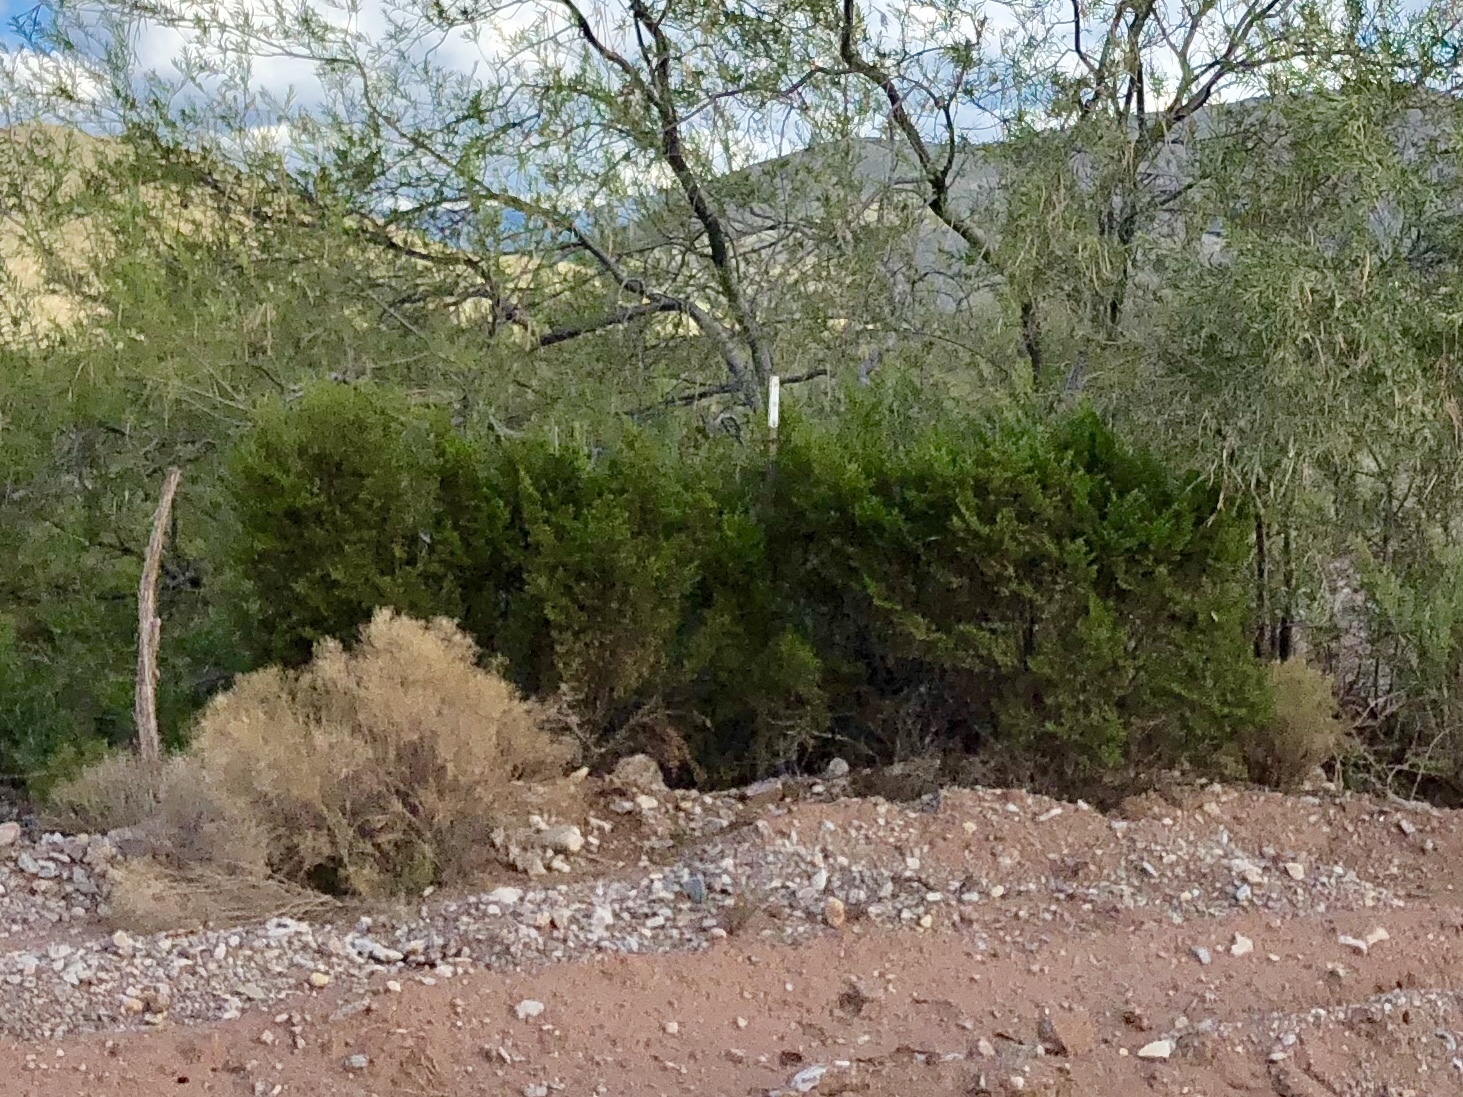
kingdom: Plantae
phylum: Tracheophyta
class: Magnoliopsida
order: Zygophyllales
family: Zygophyllaceae
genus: Larrea
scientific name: Larrea tridentata
